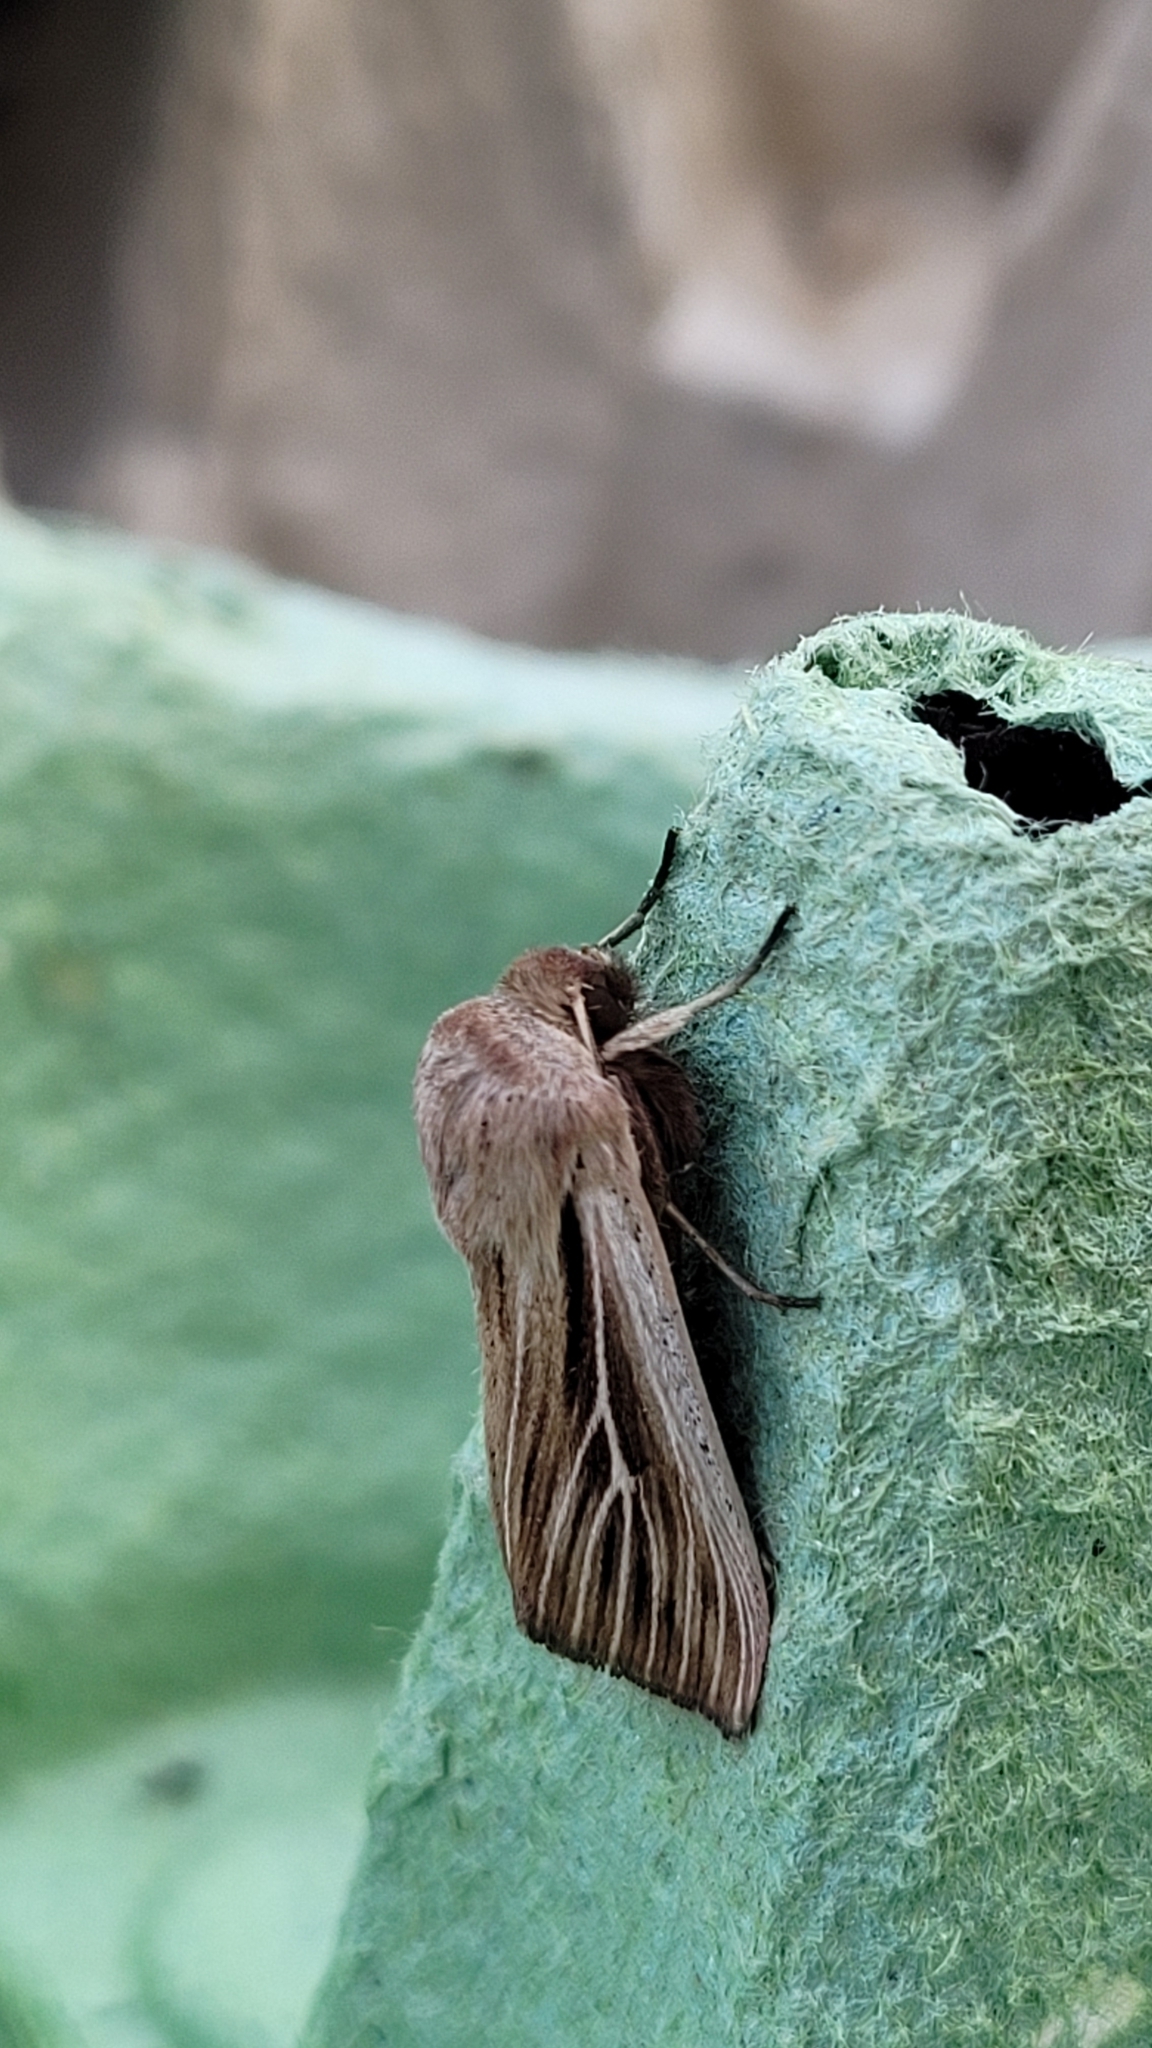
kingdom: Animalia
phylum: Arthropoda
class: Insecta
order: Lepidoptera
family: Noctuidae
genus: Leucania
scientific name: Leucania comma
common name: Shoulder-striped wainscot
